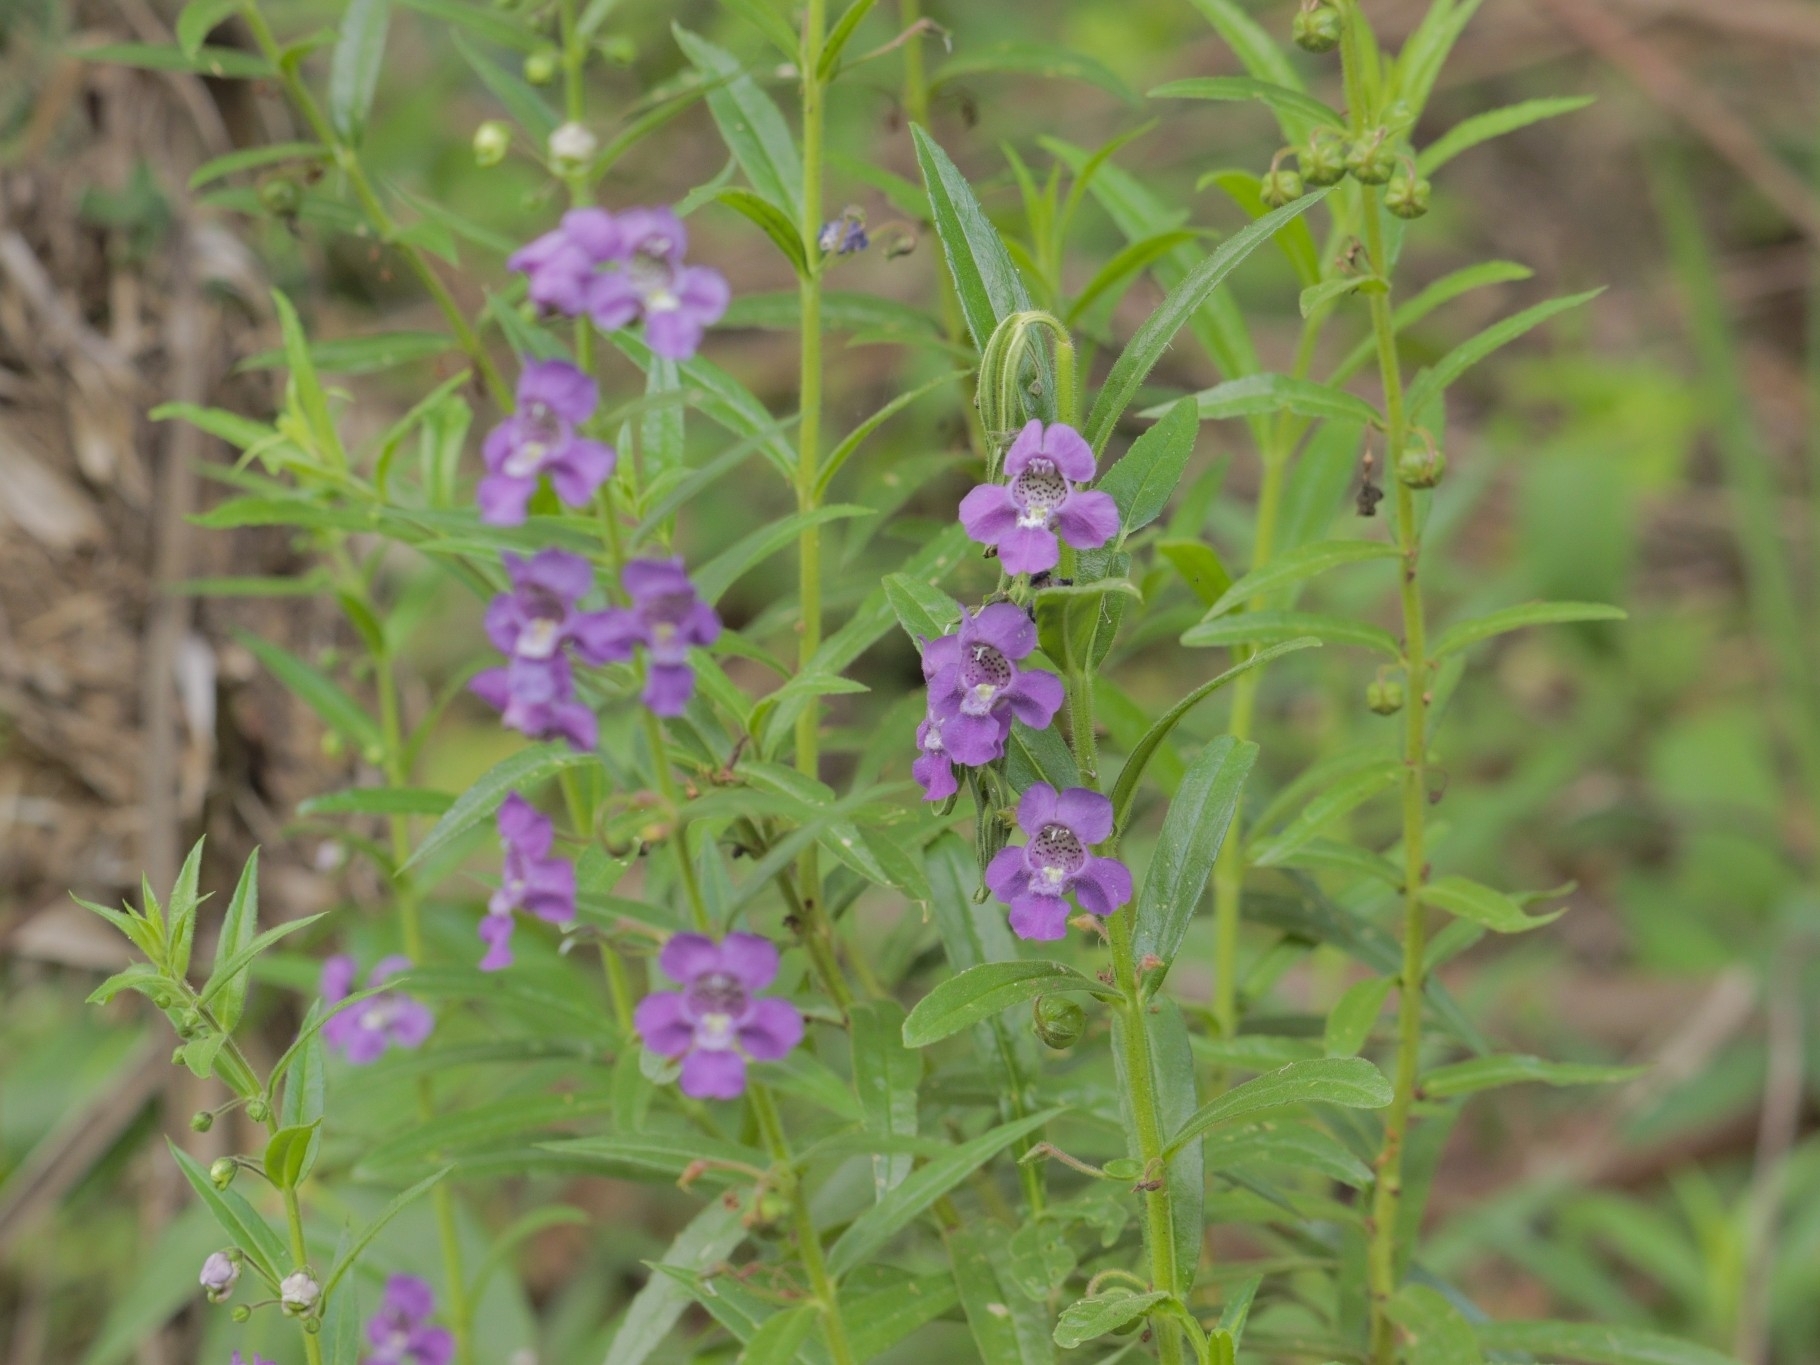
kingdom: Plantae
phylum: Tracheophyta
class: Magnoliopsida
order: Lamiales
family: Plantaginaceae
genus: Angelonia
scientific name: Angelonia biflora
